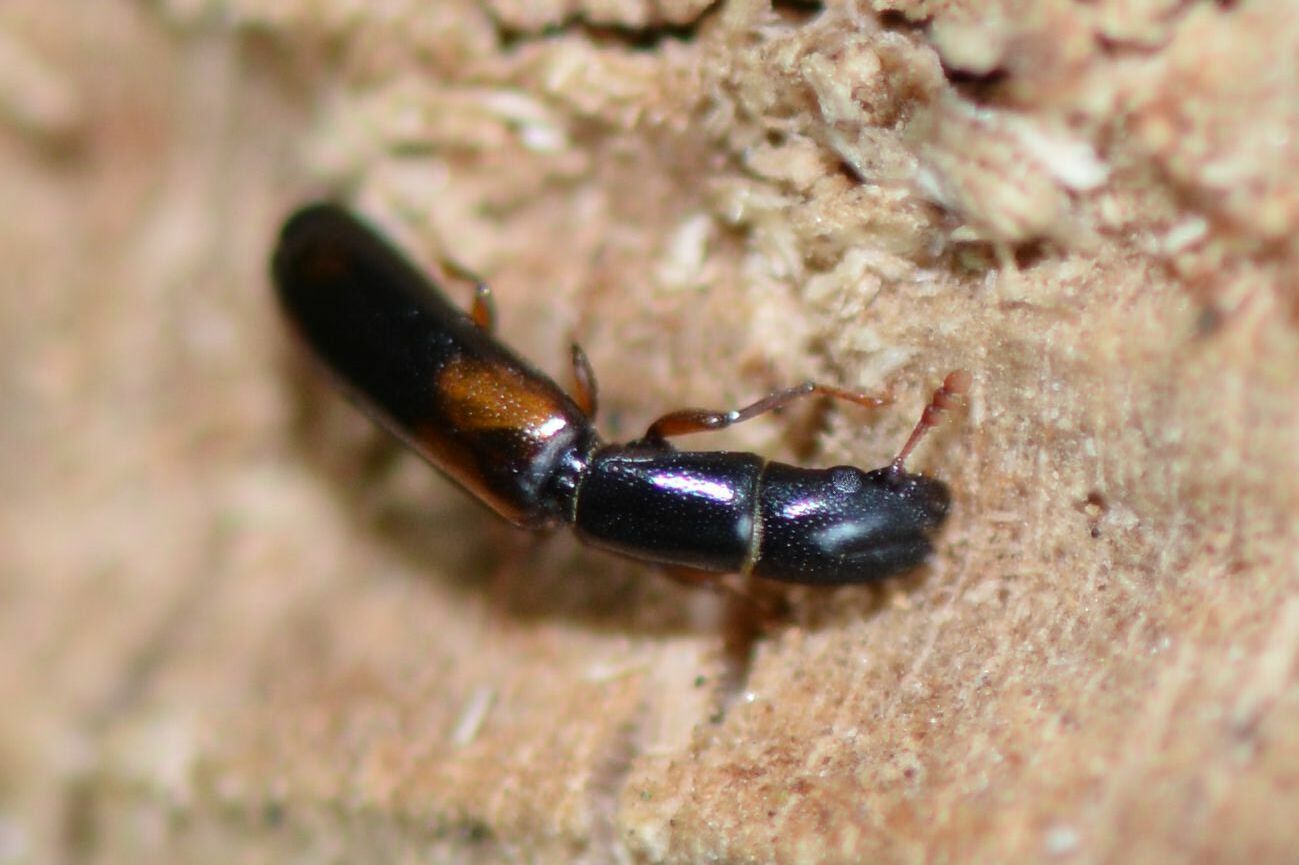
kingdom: Animalia
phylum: Arthropoda
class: Insecta
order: Coleoptera
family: Trogossitidae
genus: Nemozoma
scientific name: Nemozoma elongatum
